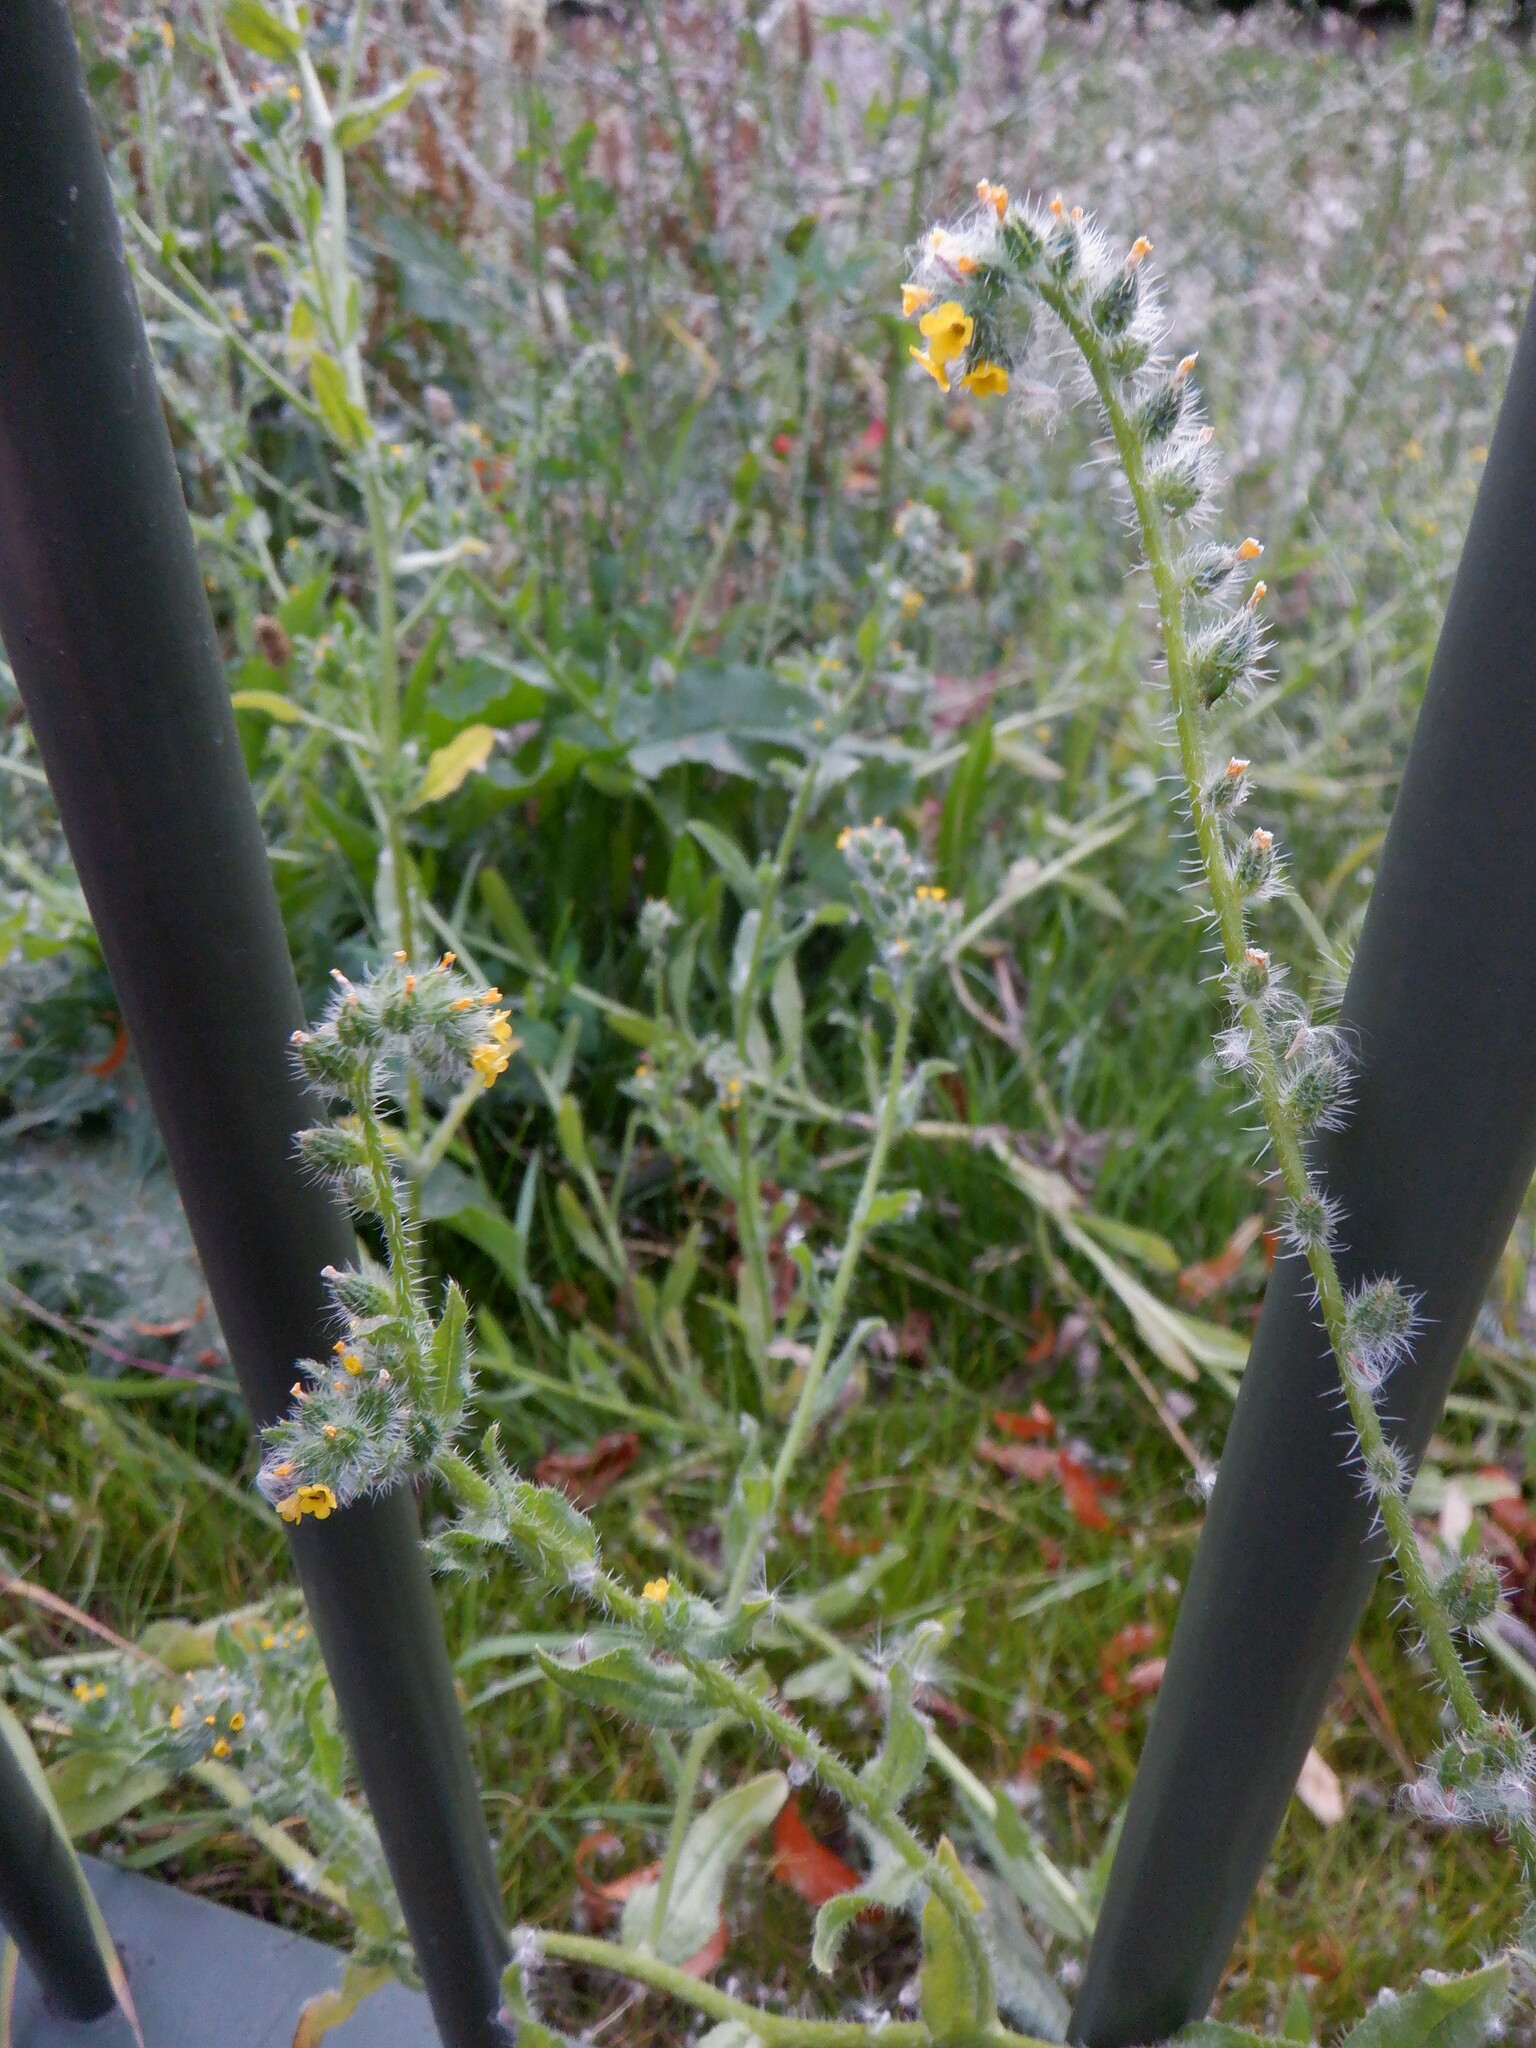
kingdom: Plantae
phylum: Tracheophyta
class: Magnoliopsida
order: Boraginales
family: Boraginaceae
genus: Amsinckia
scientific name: Amsinckia menziesii
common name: Menzies' fiddleneck
